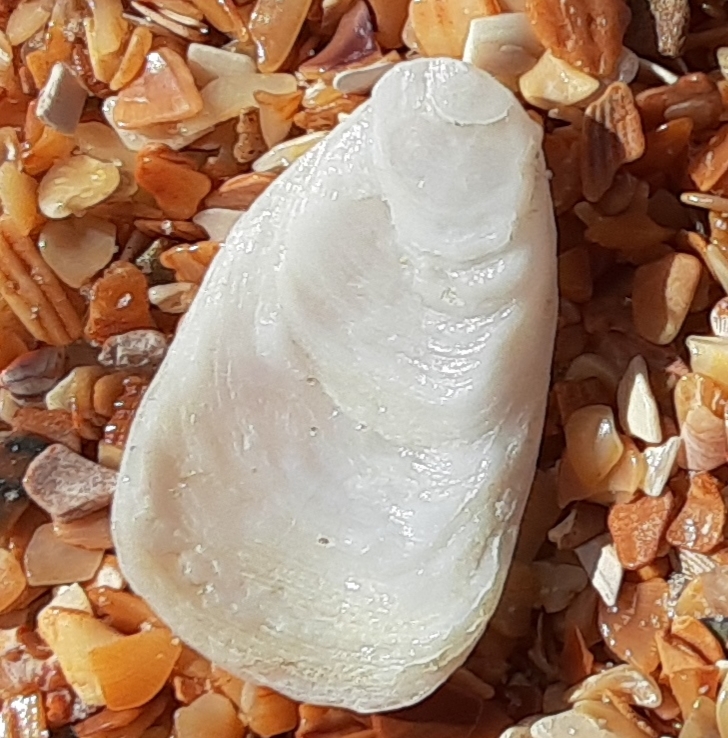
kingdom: Animalia
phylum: Mollusca
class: Gastropoda
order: Littorinimorpha
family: Calyptraeidae
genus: Crepidula
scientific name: Crepidula plana
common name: Eastern white slippersnail
